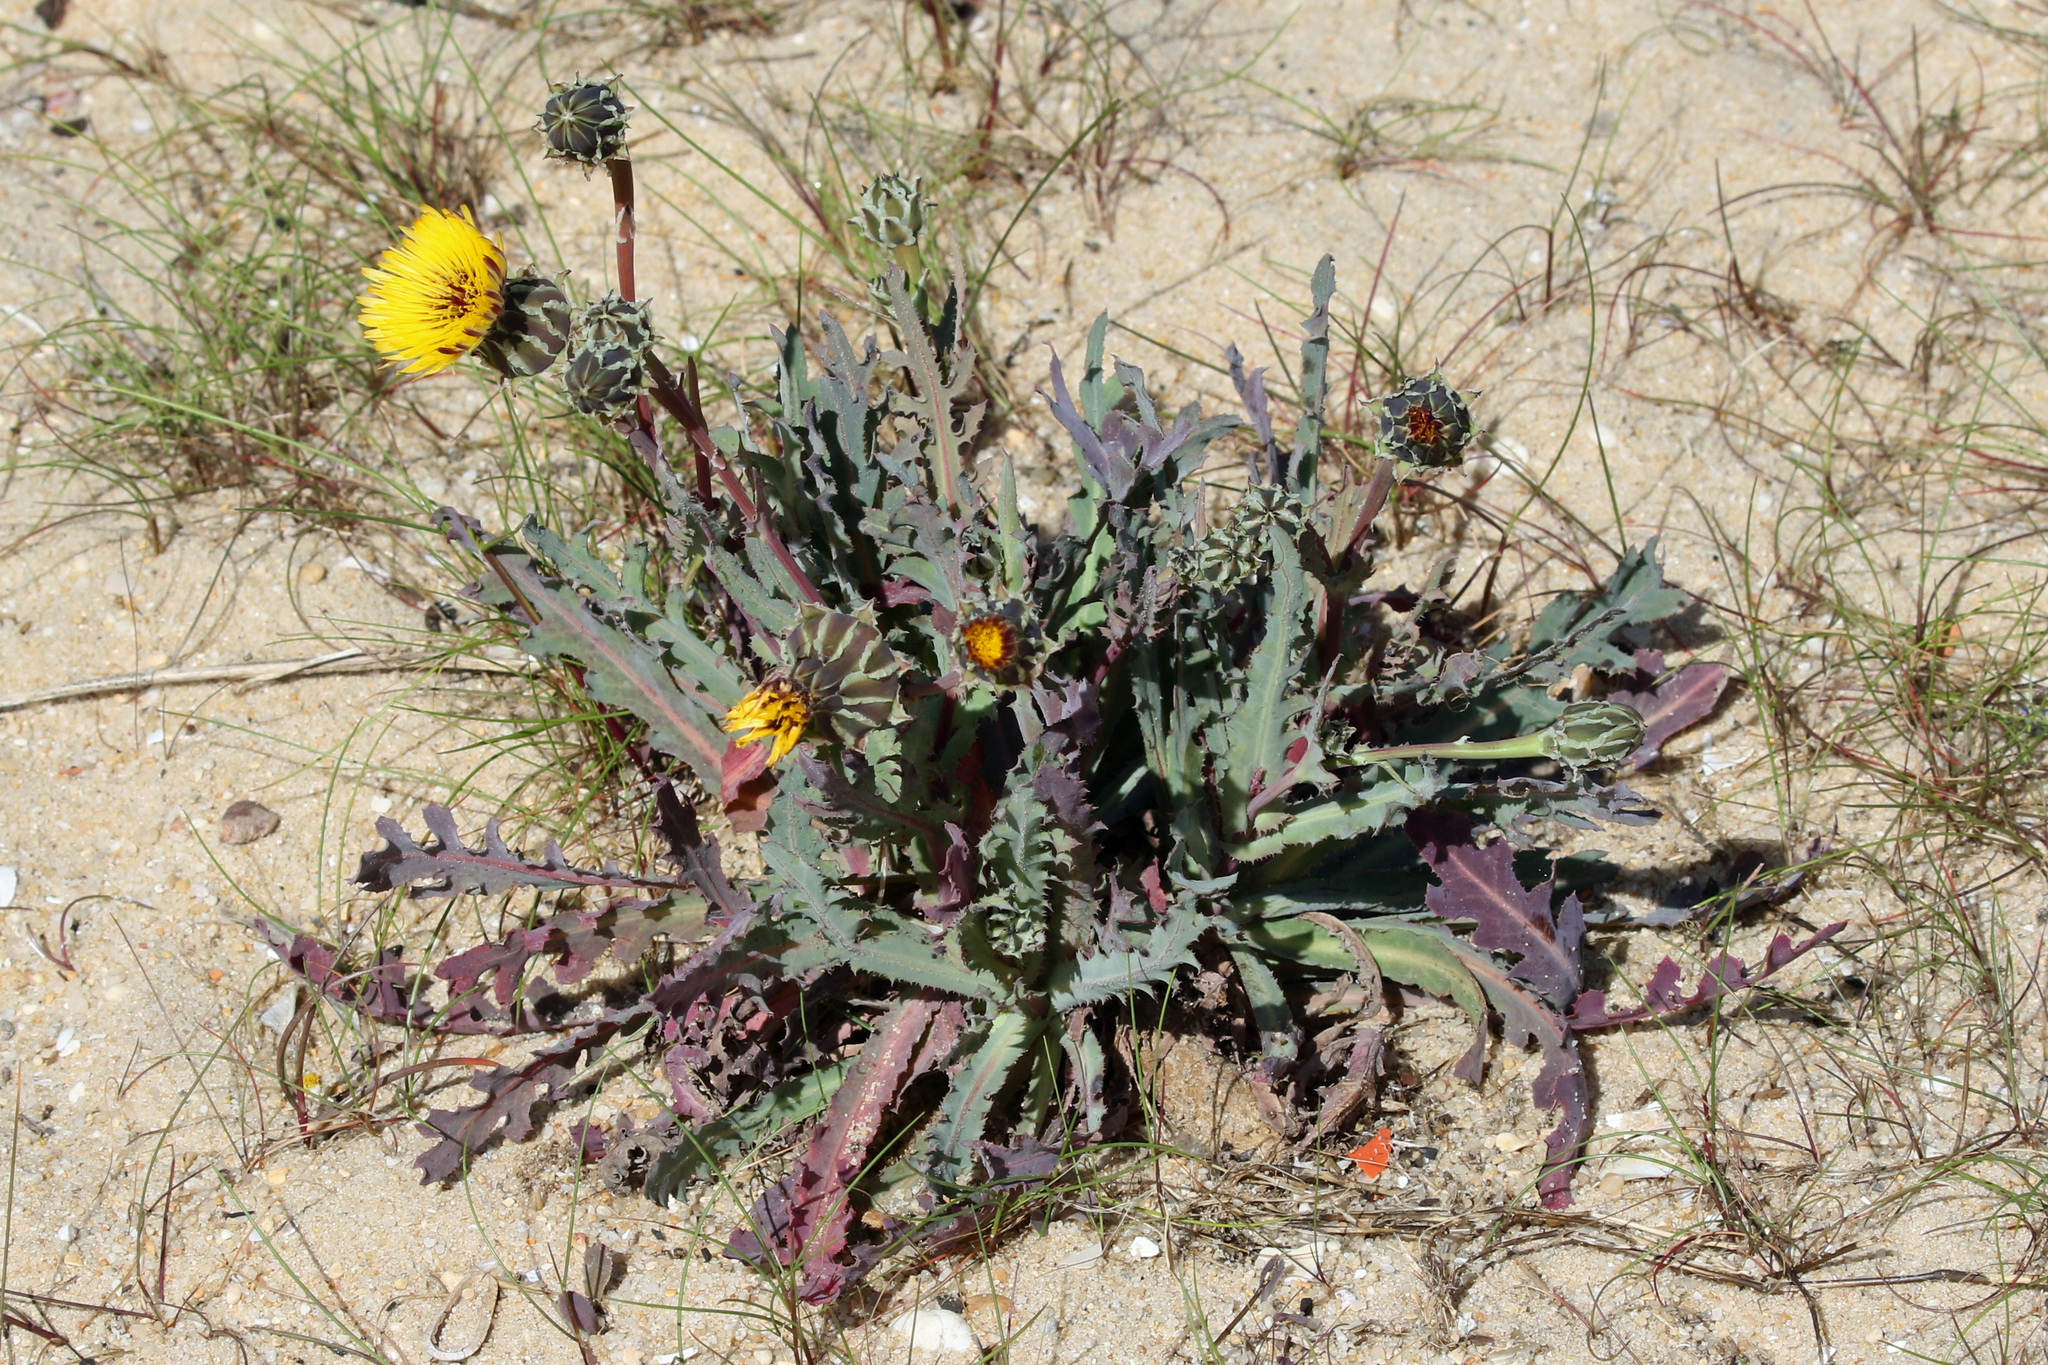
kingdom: Plantae
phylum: Tracheophyta
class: Magnoliopsida
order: Asterales
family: Asteraceae
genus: Reichardia
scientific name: Reichardia gaditana
